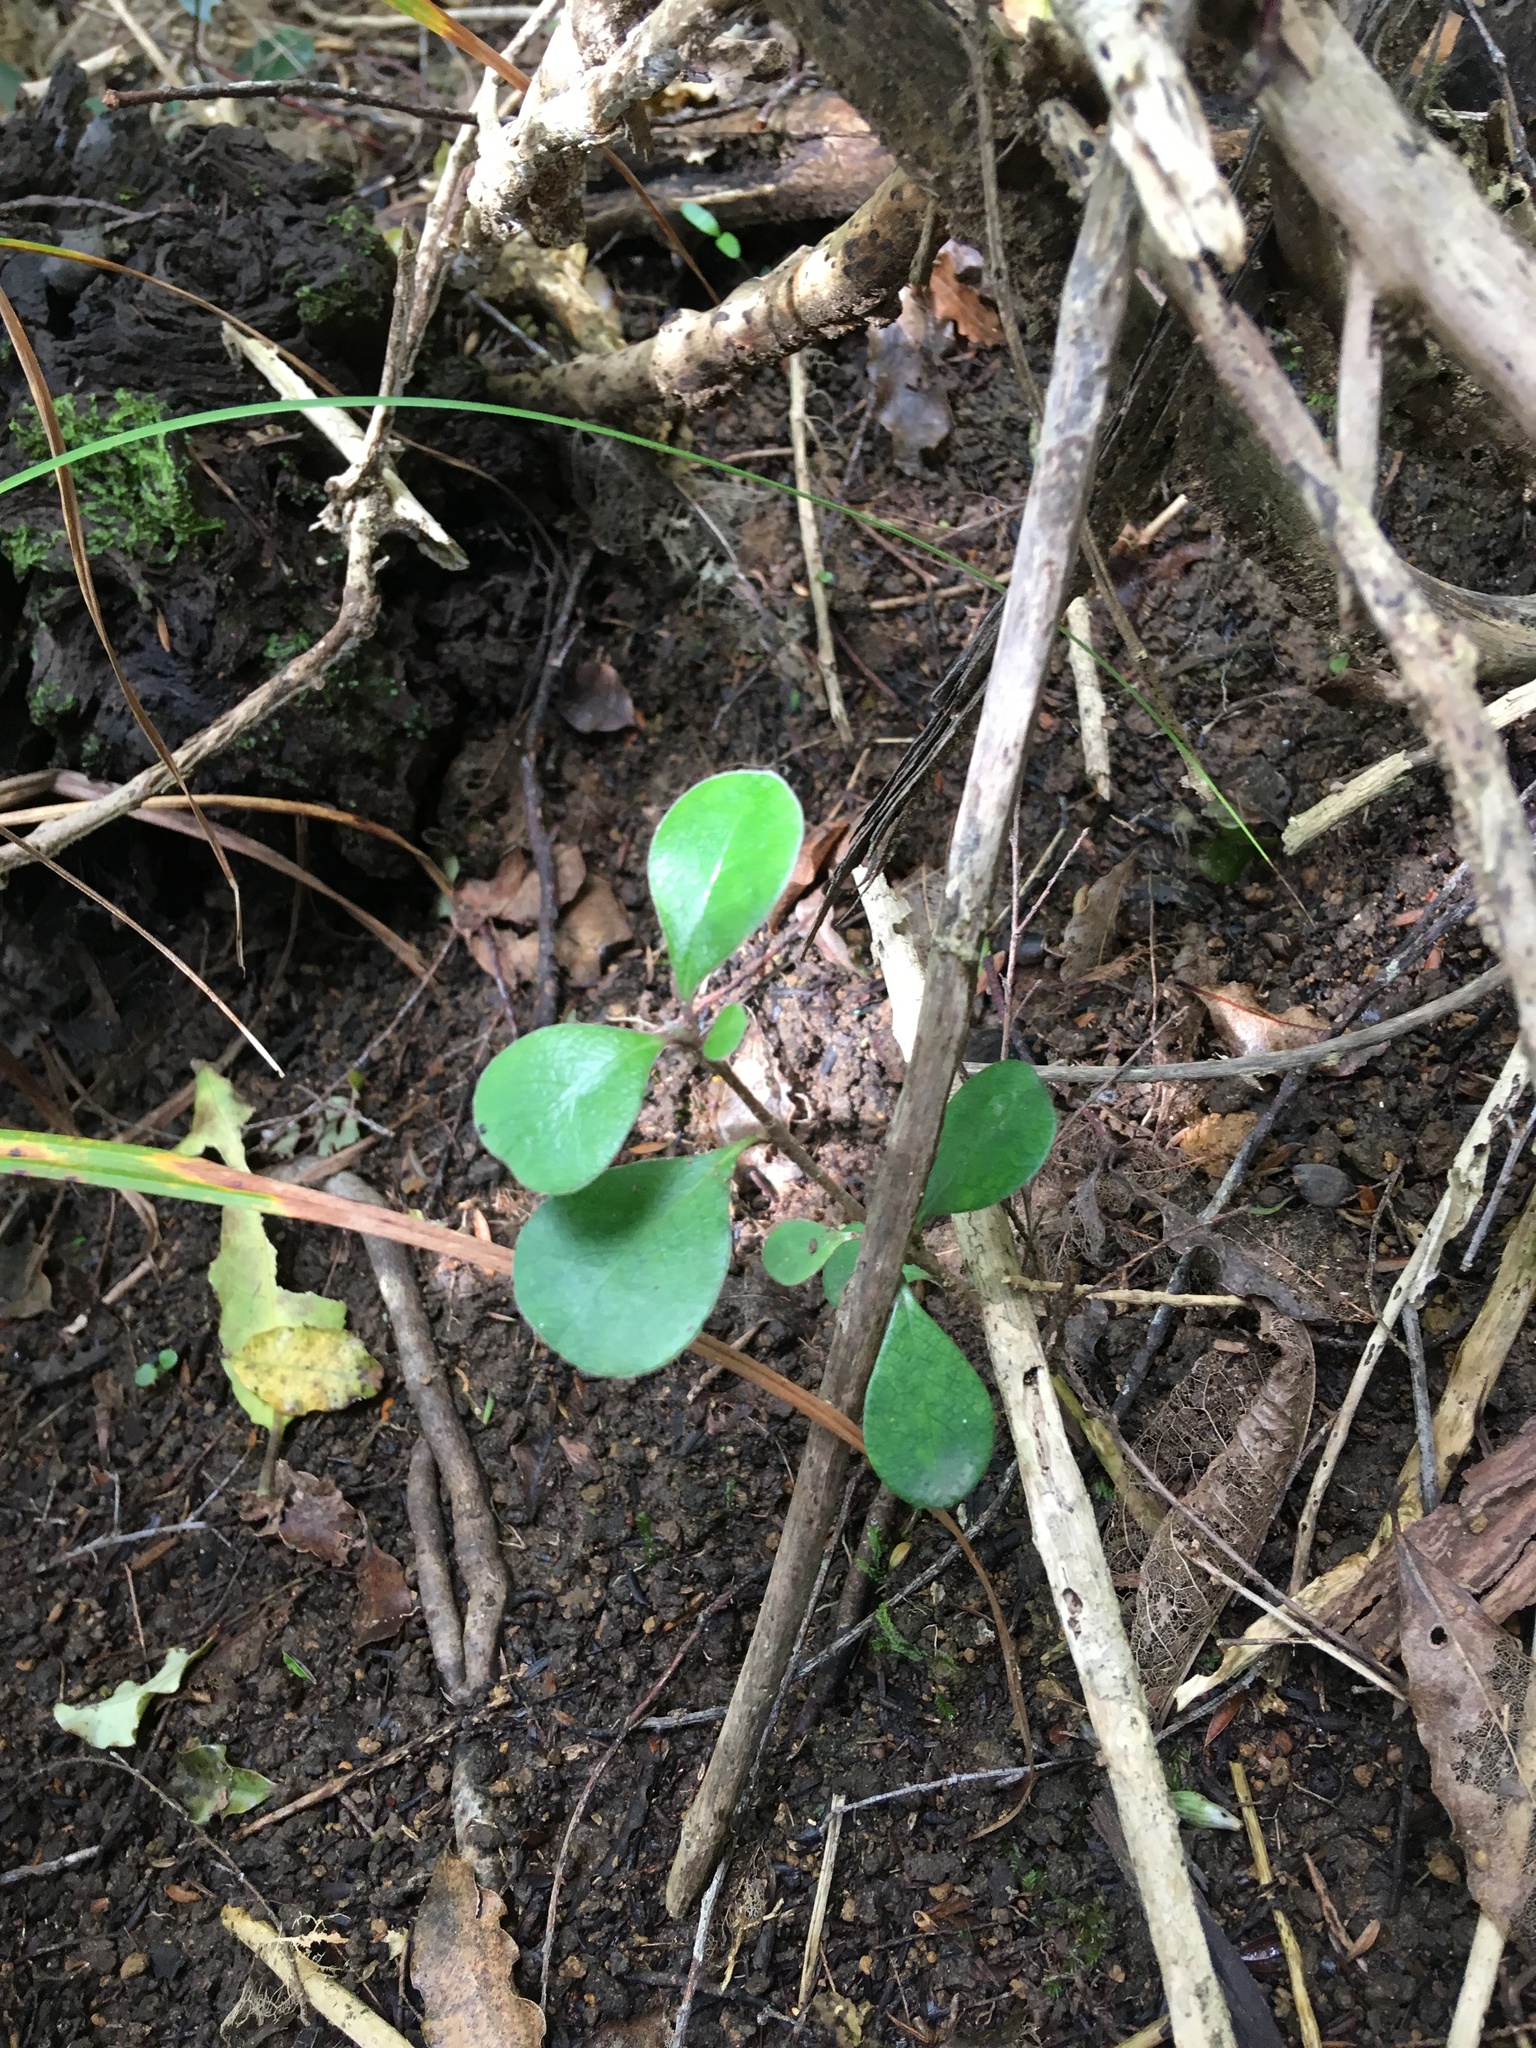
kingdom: Plantae
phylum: Tracheophyta
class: Magnoliopsida
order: Apiales
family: Pittosporaceae
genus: Pittosporum
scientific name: Pittosporum crassifolium
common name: Karo
